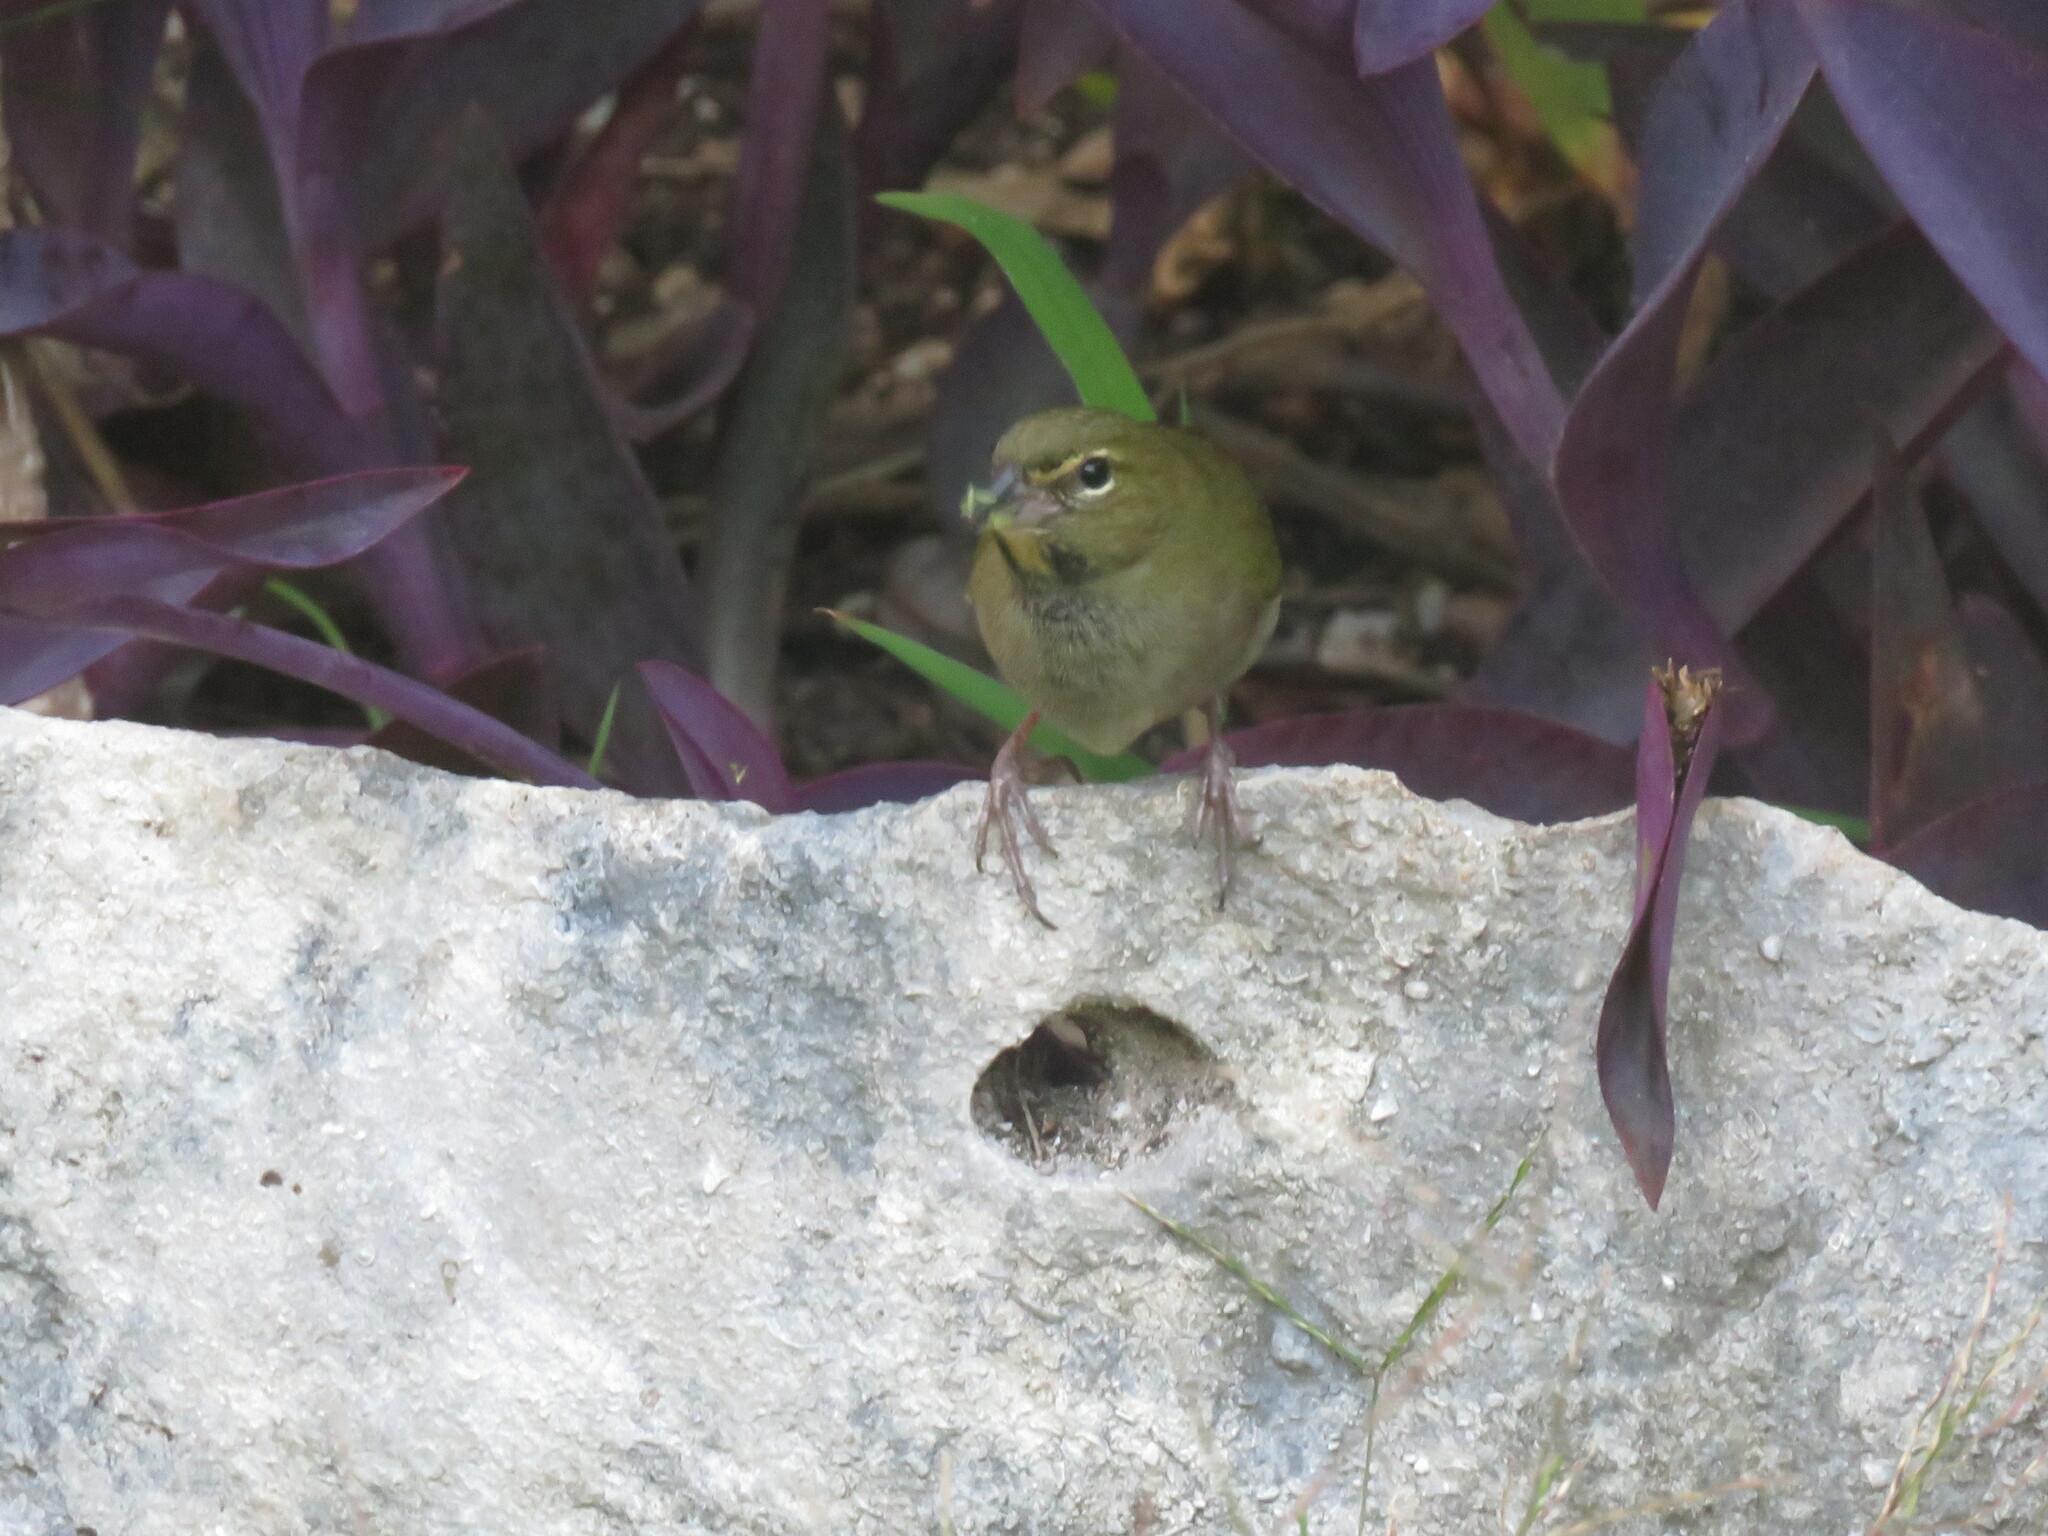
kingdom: Animalia
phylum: Chordata
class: Aves
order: Passeriformes
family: Thraupidae
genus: Tiaris
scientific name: Tiaris olivaceus
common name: Yellow-faced grassquit
